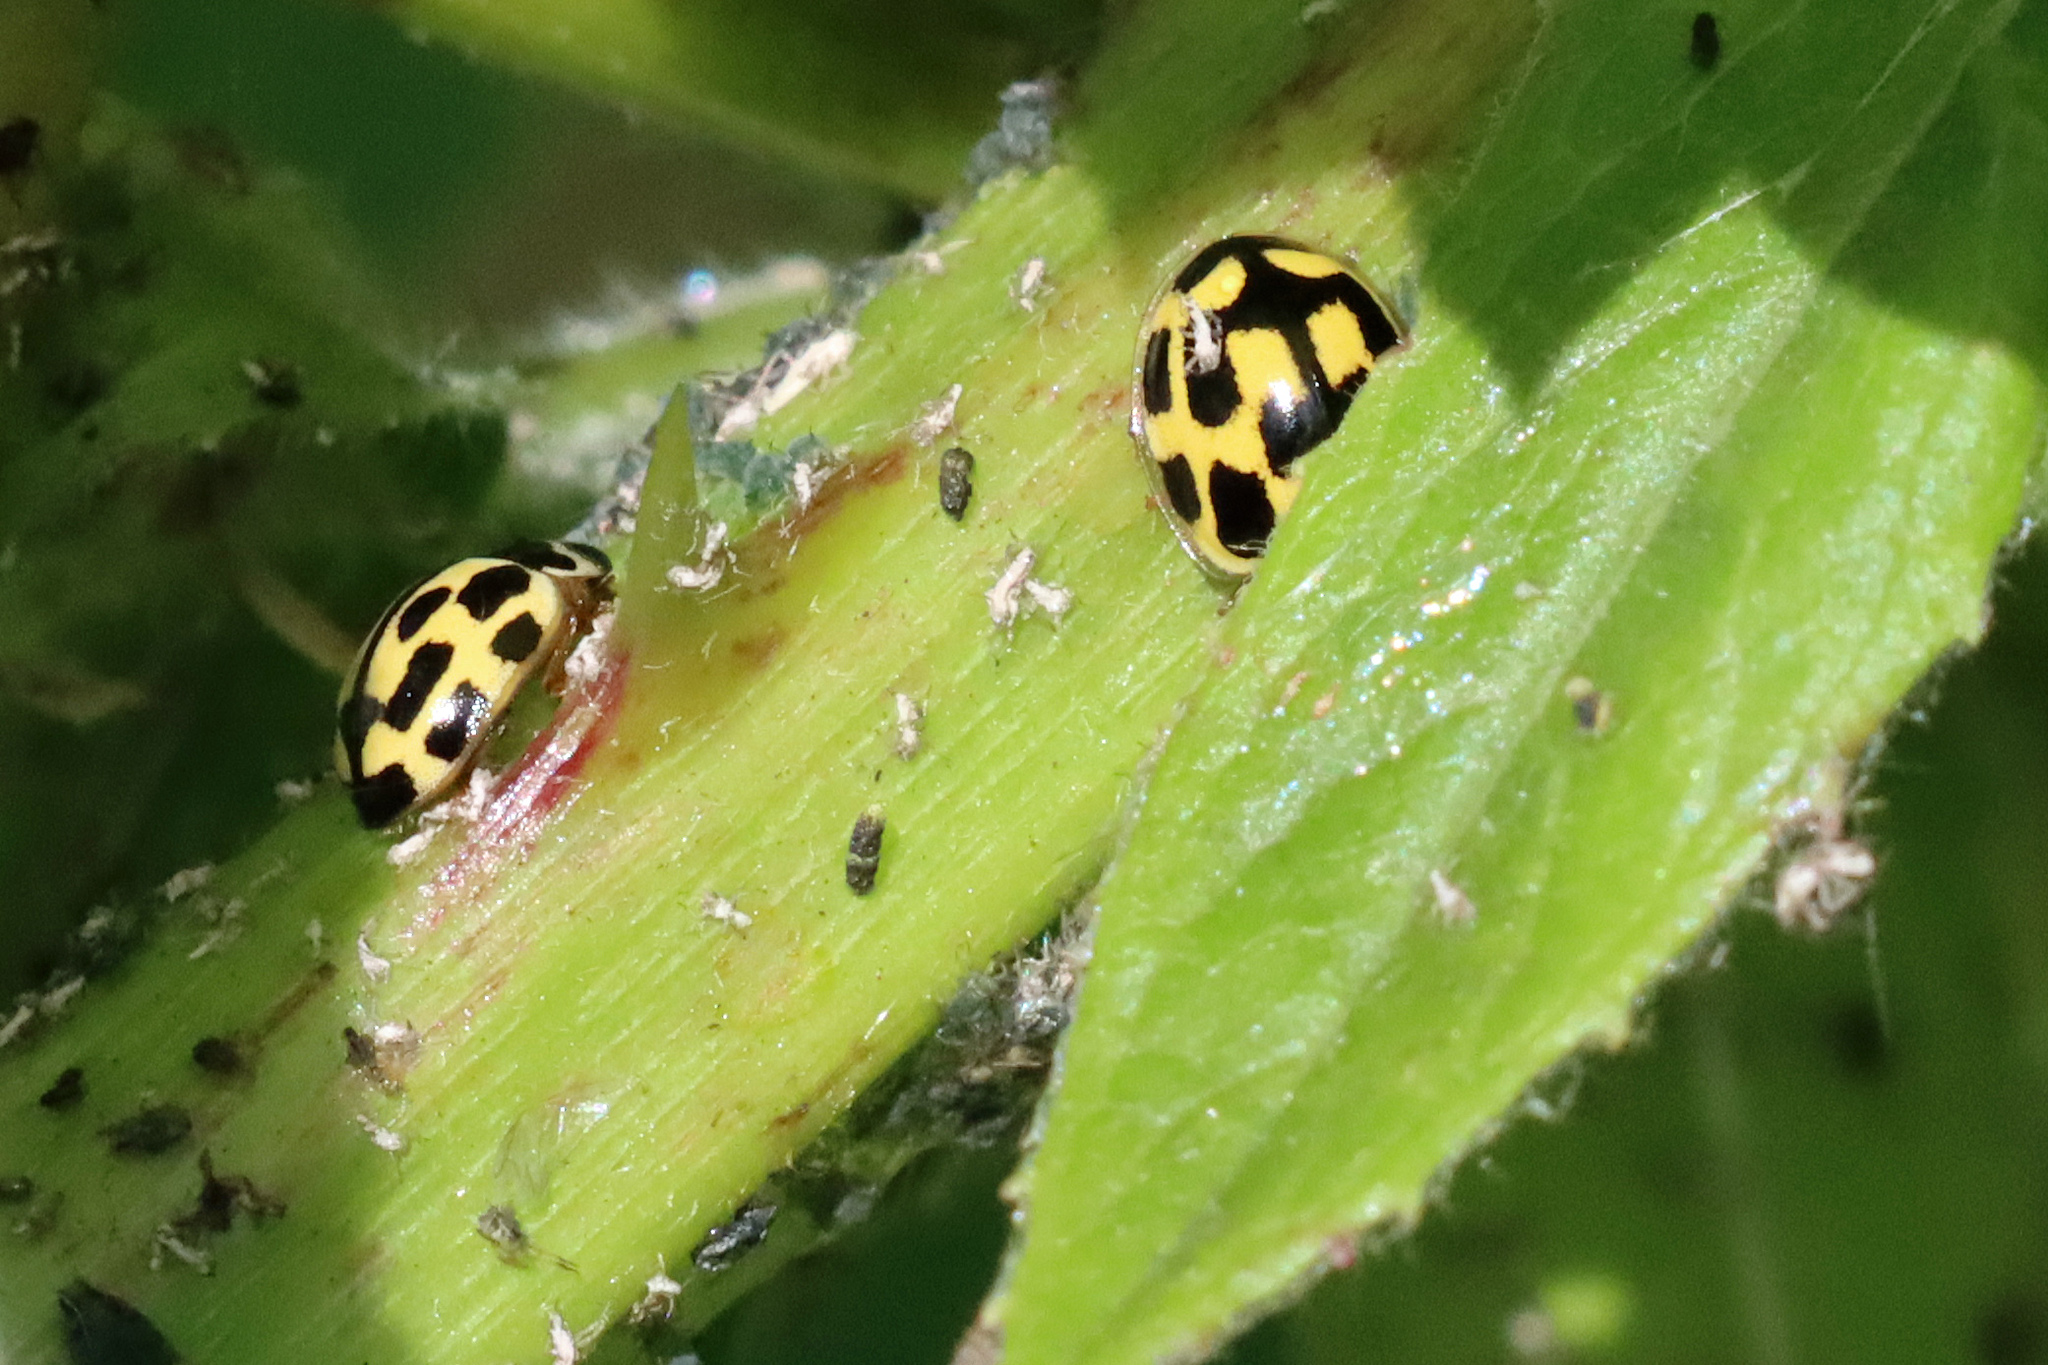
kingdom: Animalia
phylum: Arthropoda
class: Insecta
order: Coleoptera
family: Coccinellidae
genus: Propylaea
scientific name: Propylaea quatuordecimpunctata
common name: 14-spotted ladybird beetle
